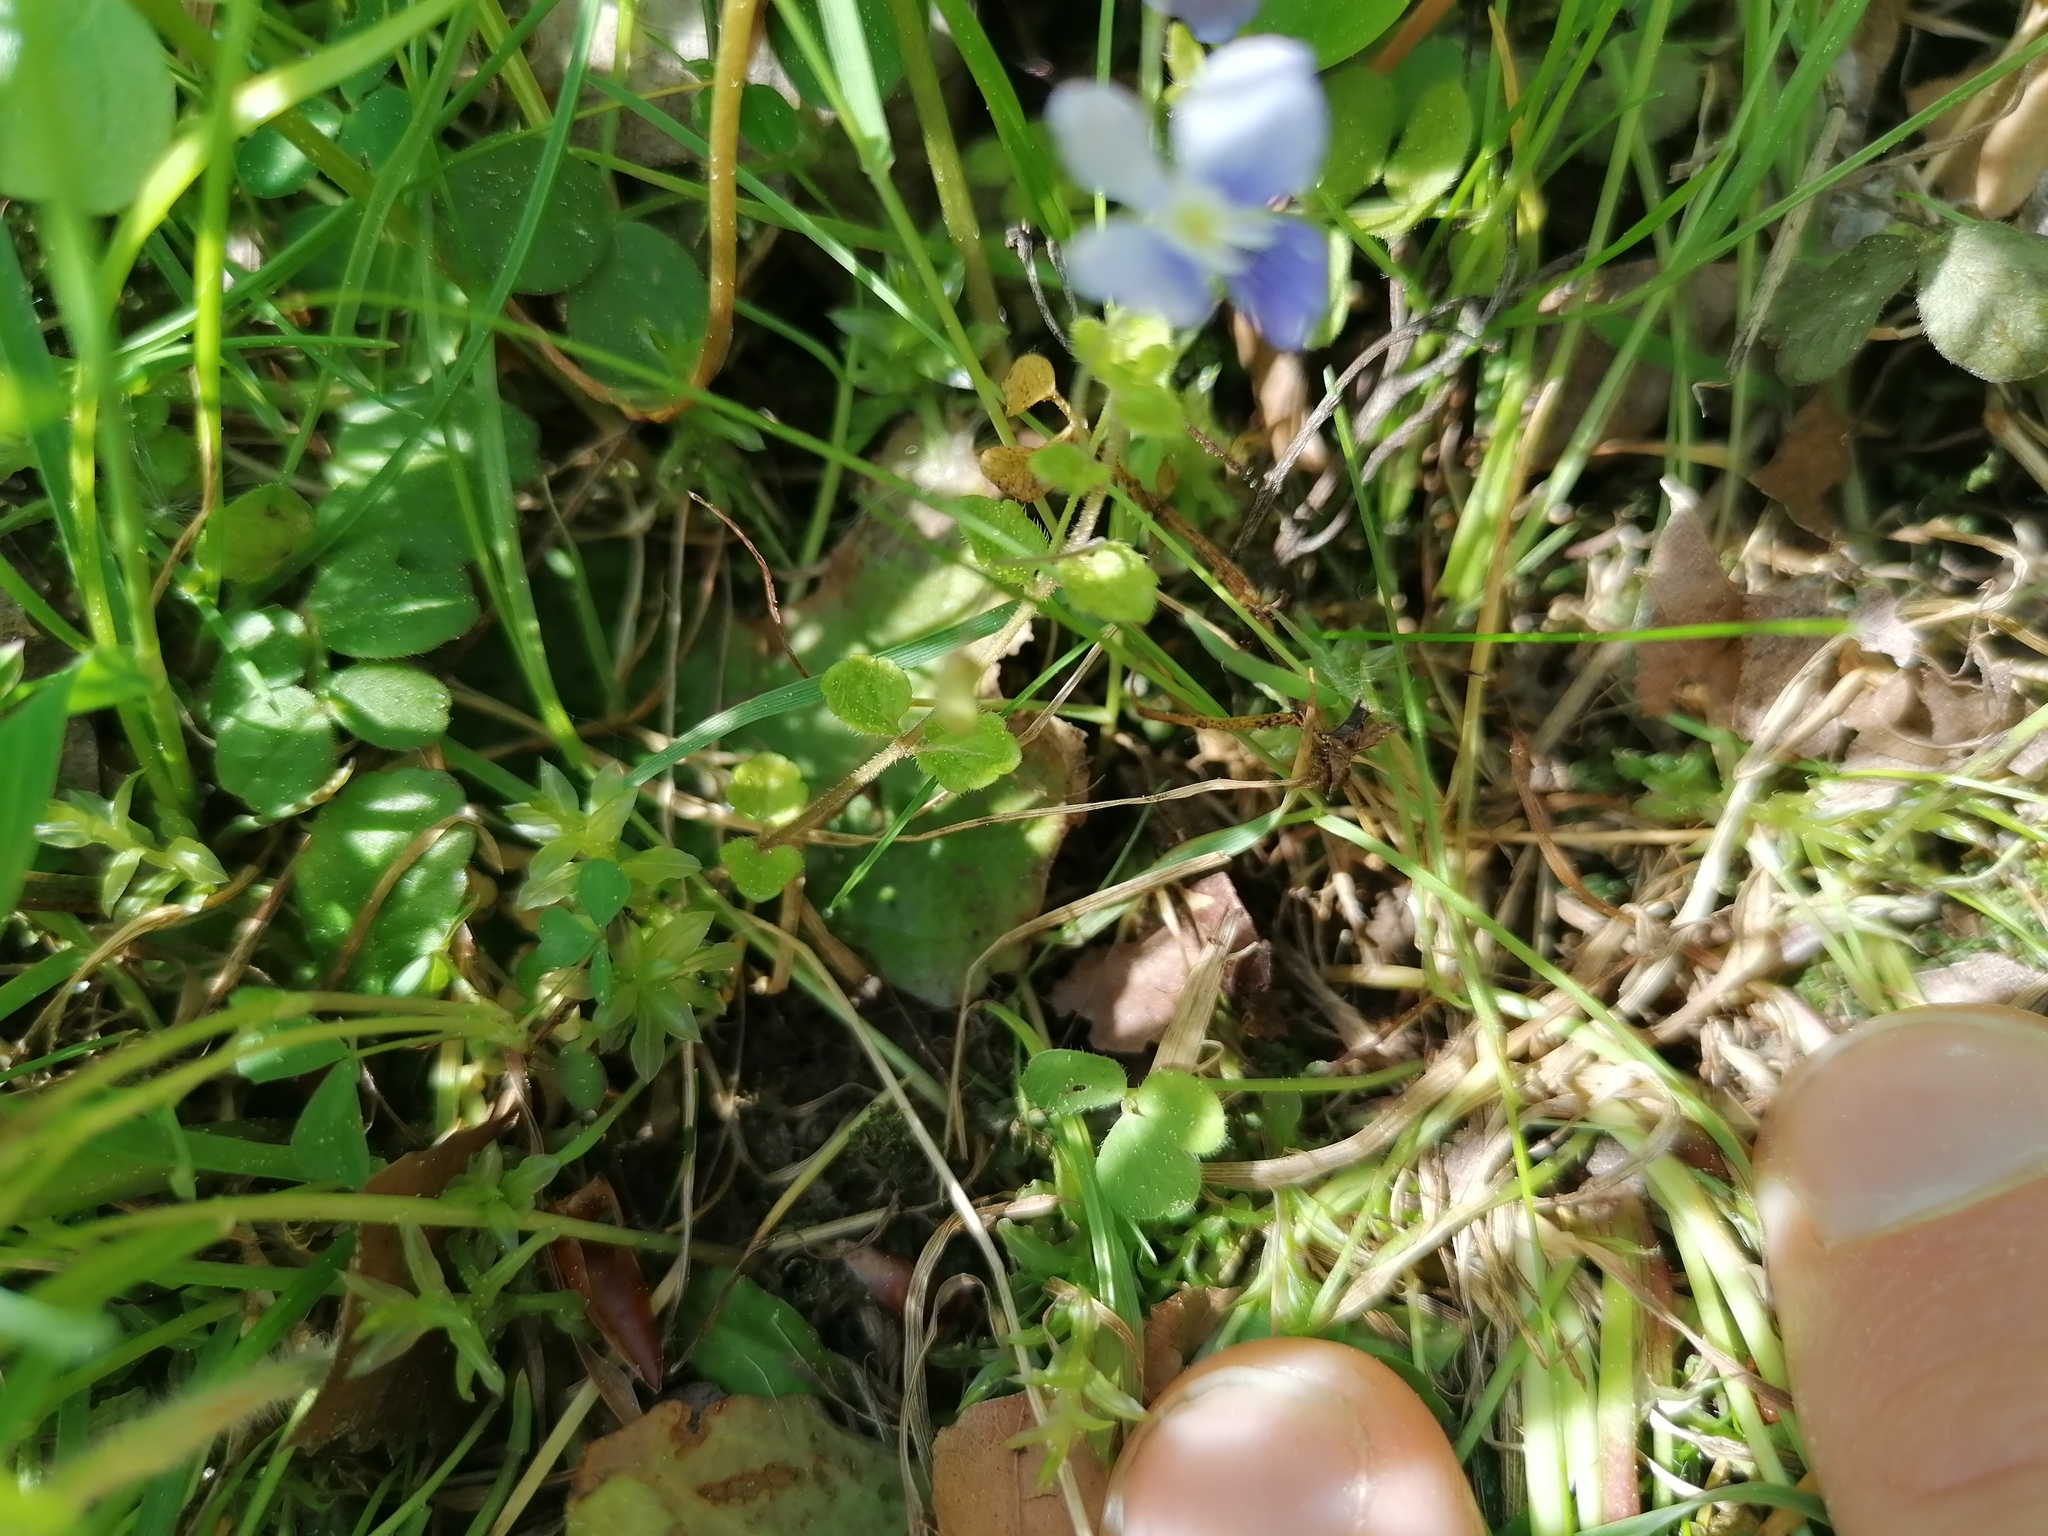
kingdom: Plantae
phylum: Tracheophyta
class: Magnoliopsida
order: Lamiales
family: Plantaginaceae
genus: Veronica
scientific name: Veronica filiformis
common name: Slender speedwell
